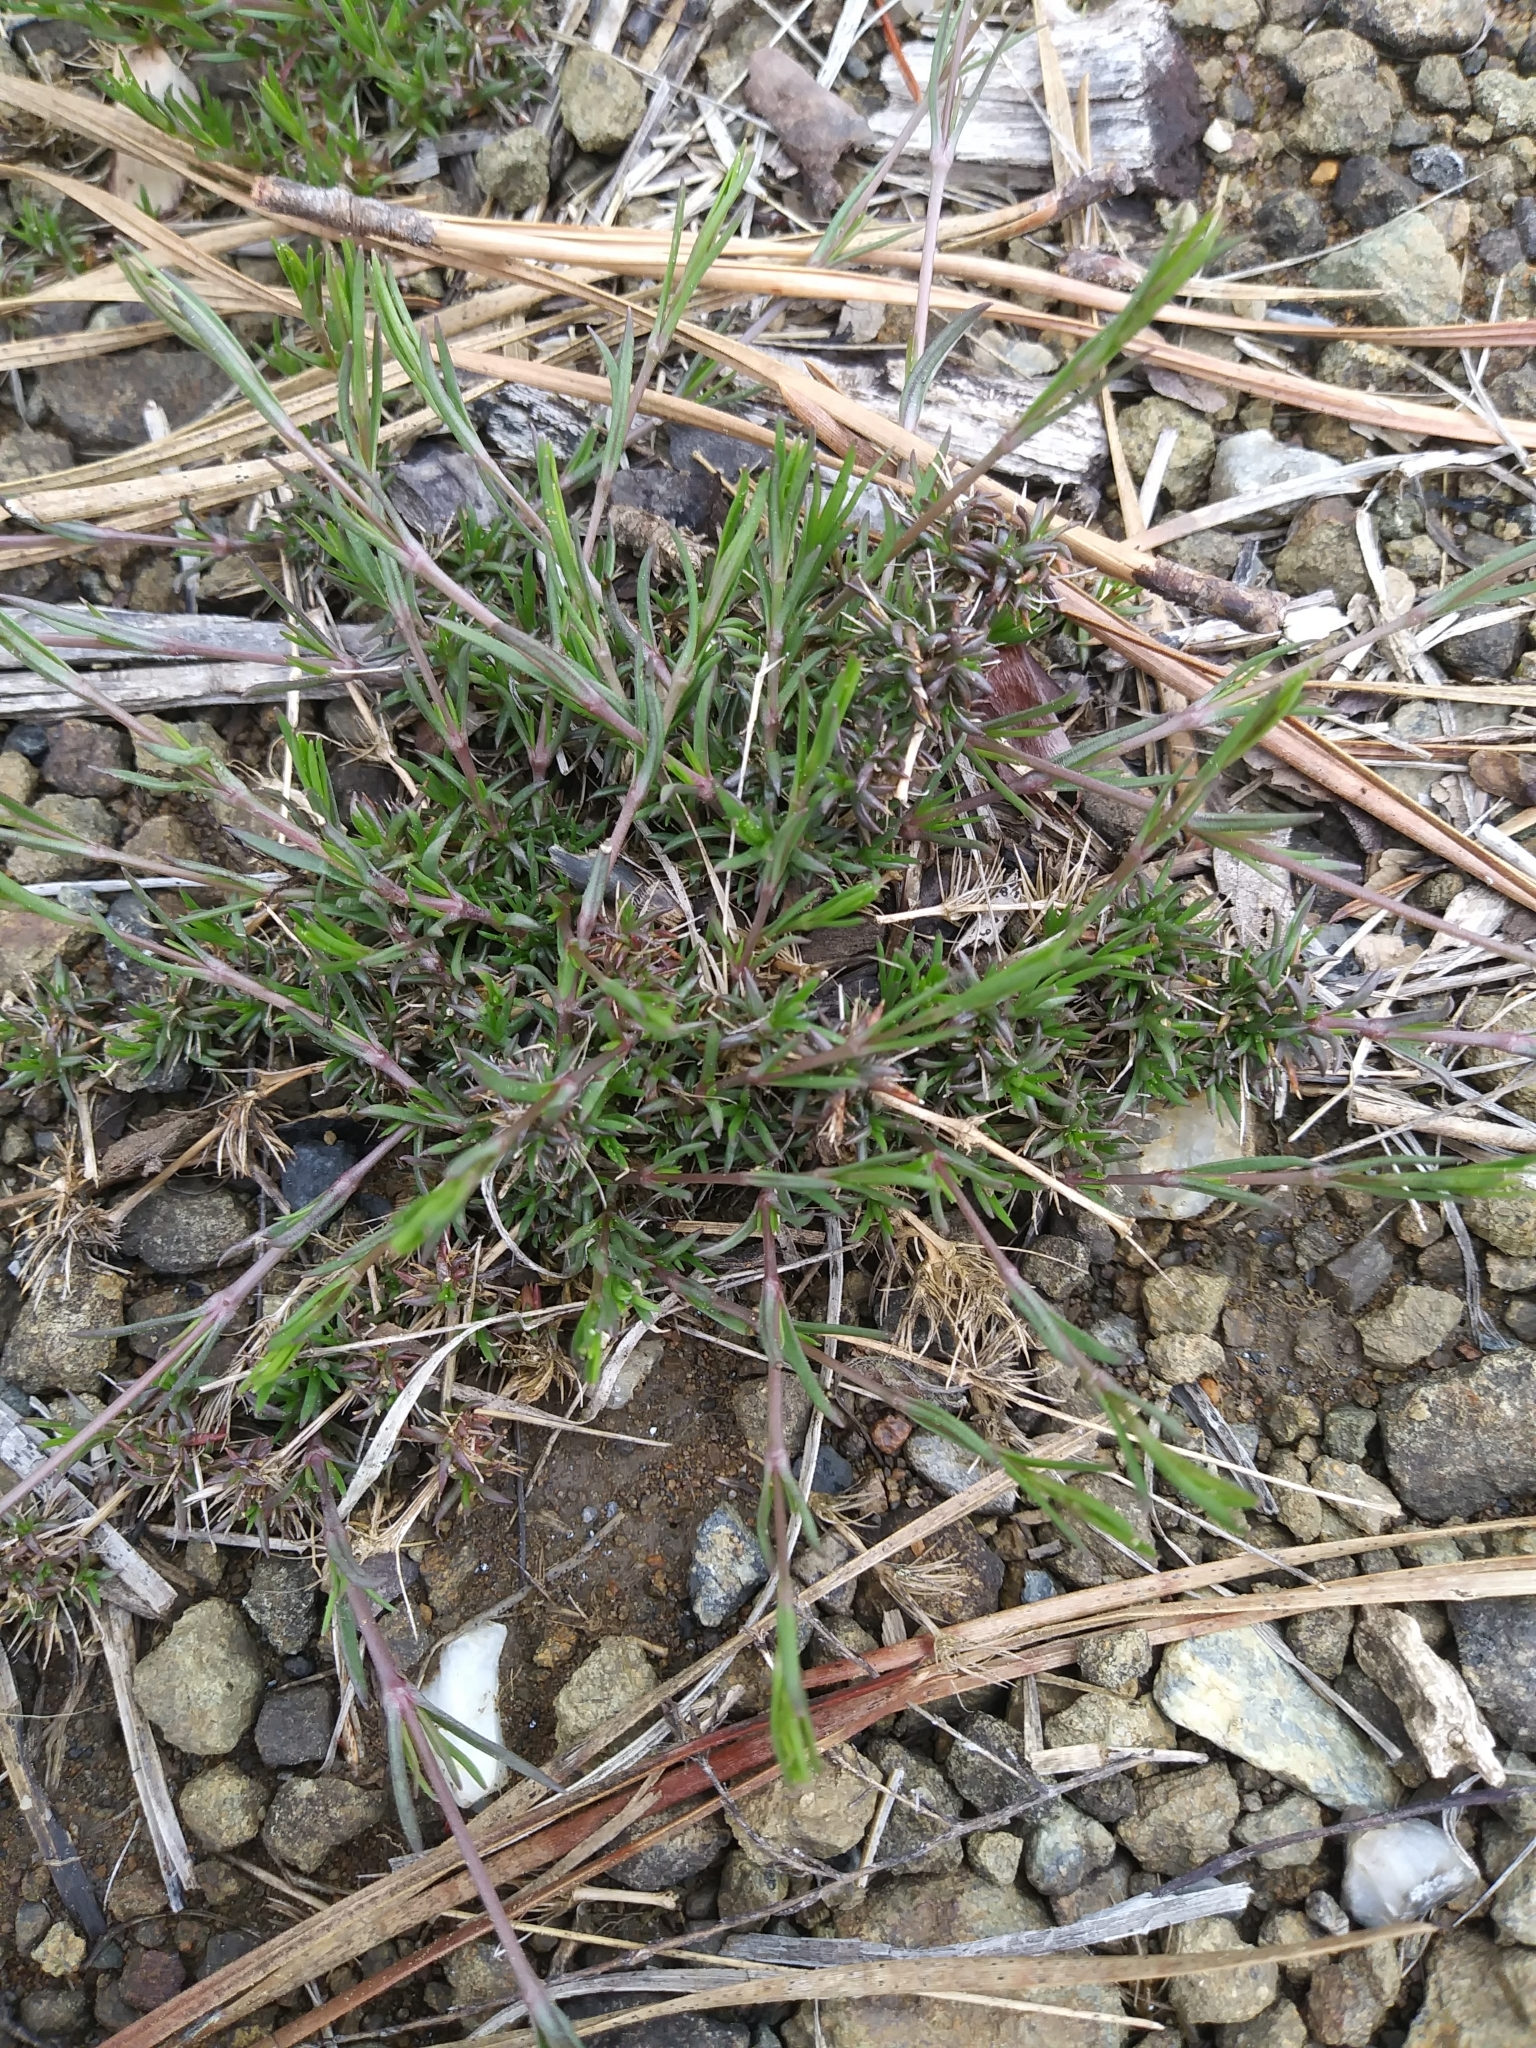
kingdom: Plantae
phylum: Tracheophyta
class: Magnoliopsida
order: Caryophyllales
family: Caryophyllaceae
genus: Sabulina
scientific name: Sabulina michauxii
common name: Michaux's stitchwort
